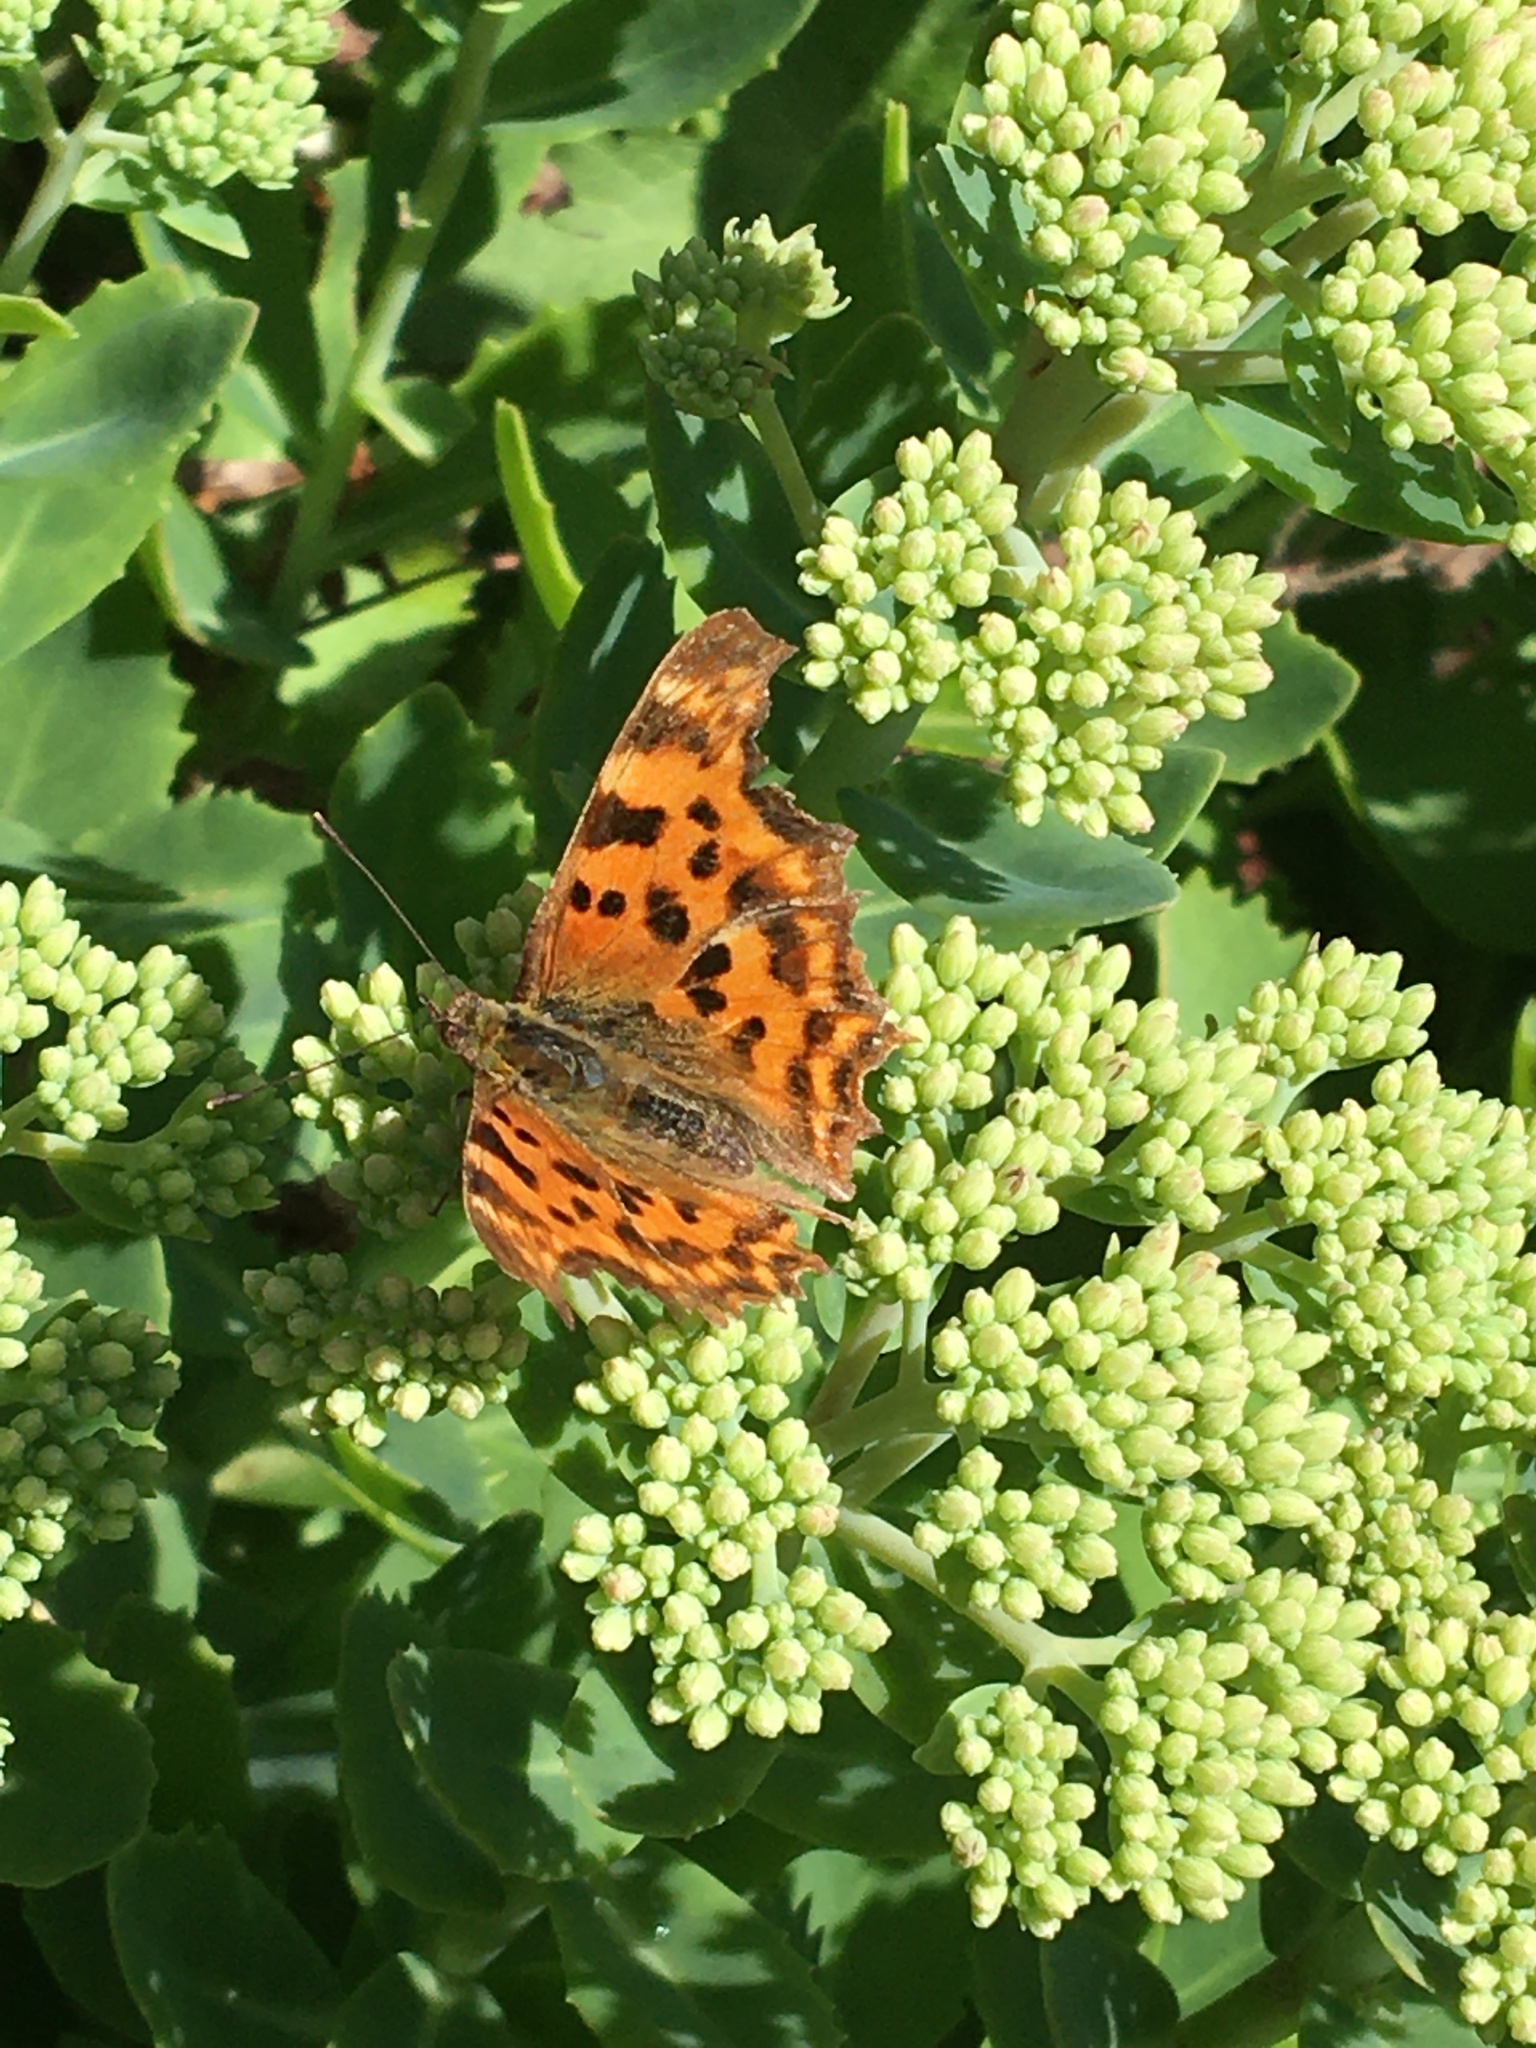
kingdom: Animalia
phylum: Arthropoda
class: Insecta
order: Lepidoptera
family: Nymphalidae
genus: Polygonia
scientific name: Polygonia c-album
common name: Comma
